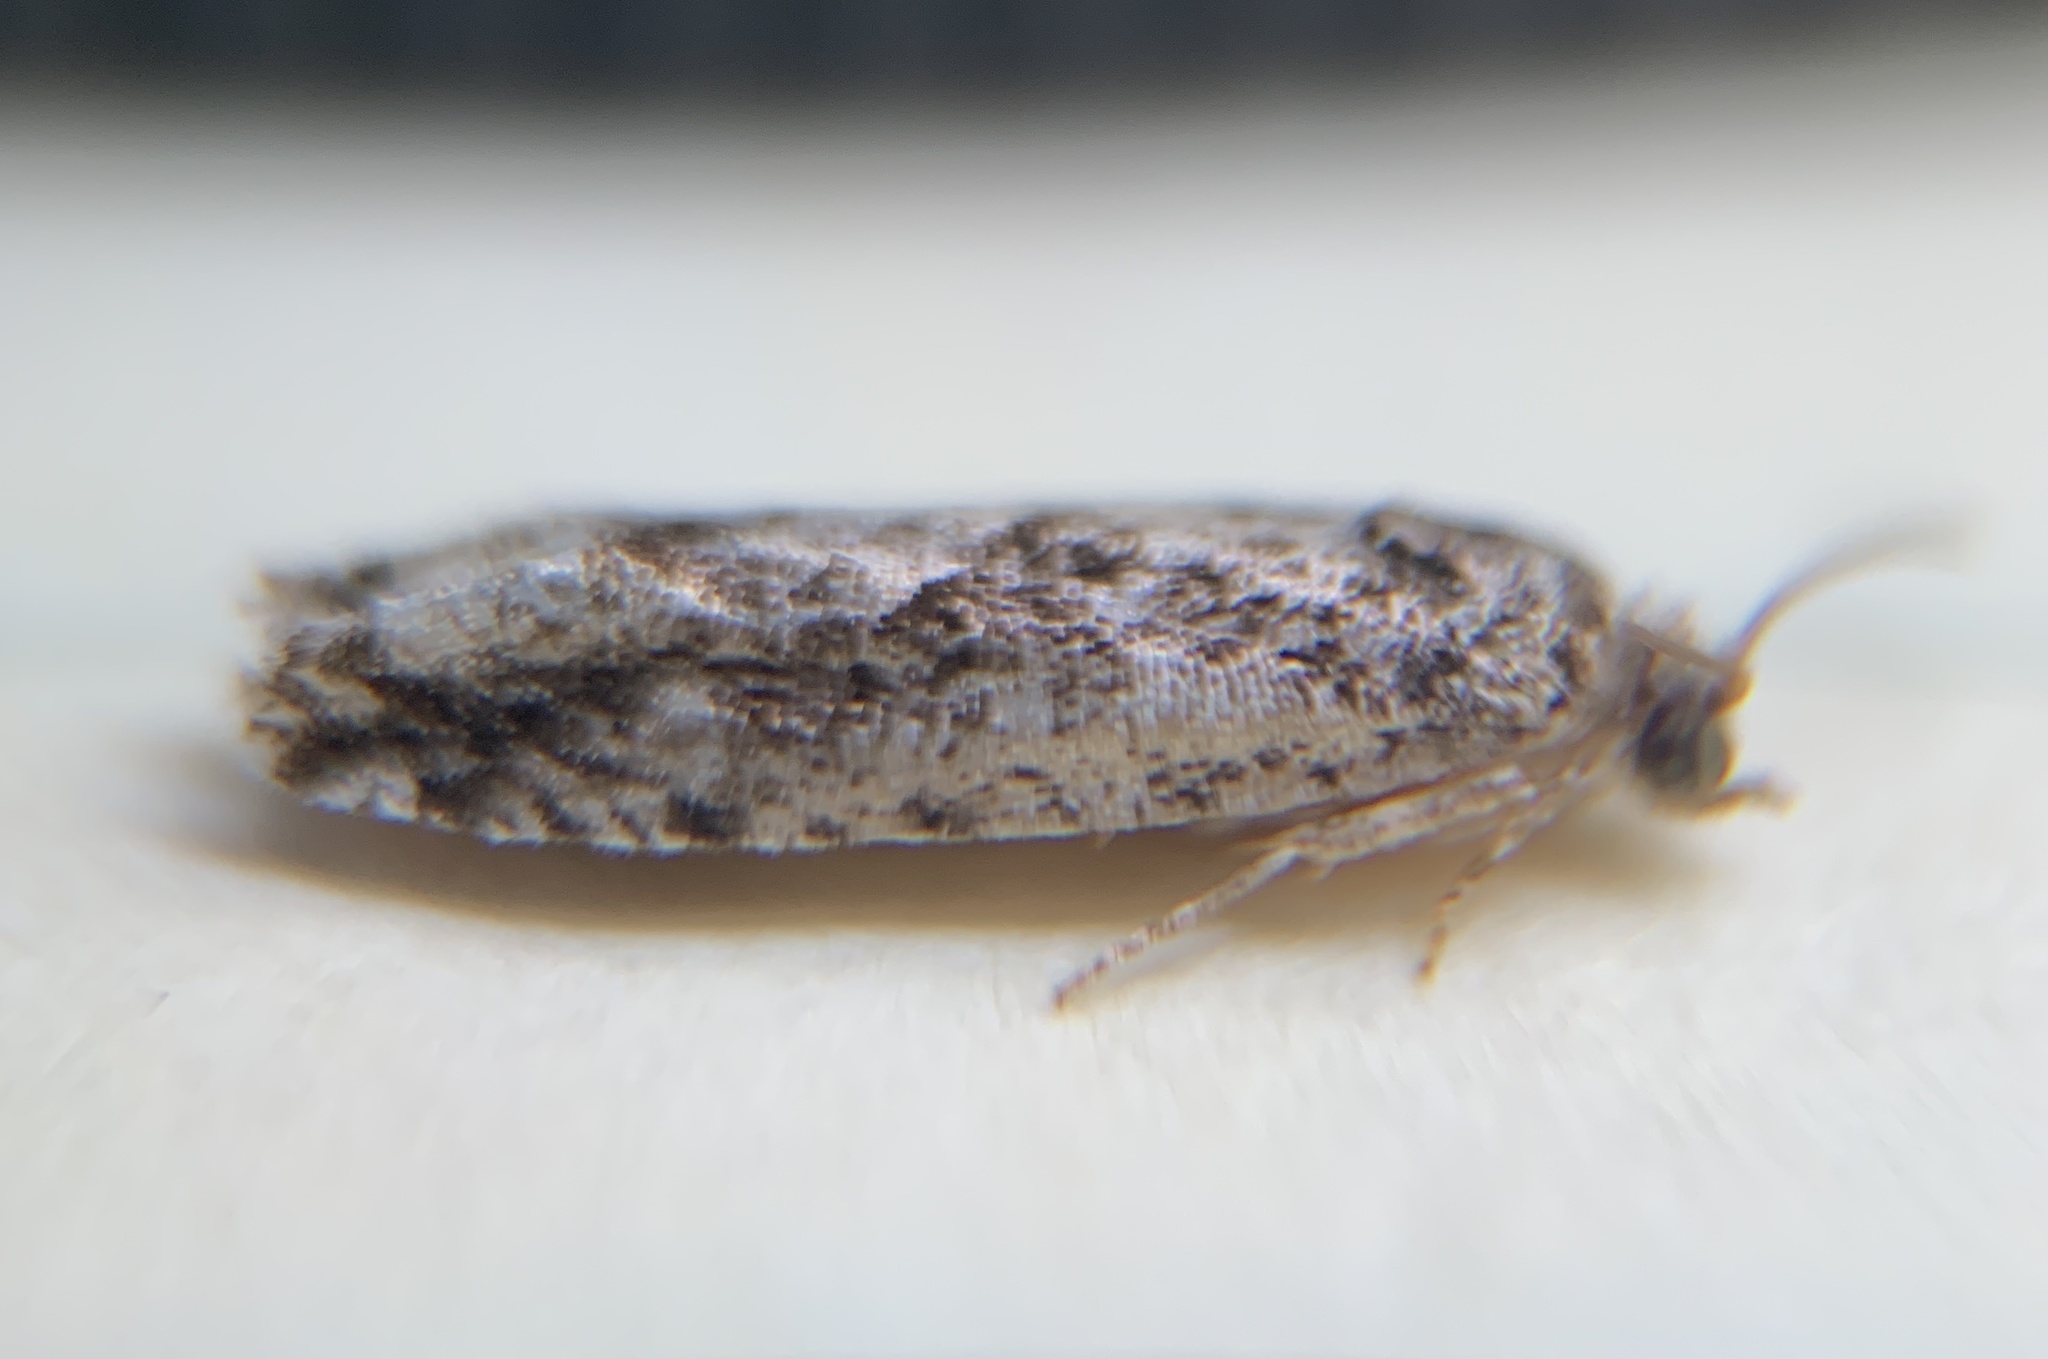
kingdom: Animalia
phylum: Arthropoda
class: Insecta
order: Lepidoptera
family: Tortricidae
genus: Gretchena
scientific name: Gretchena watchungana
